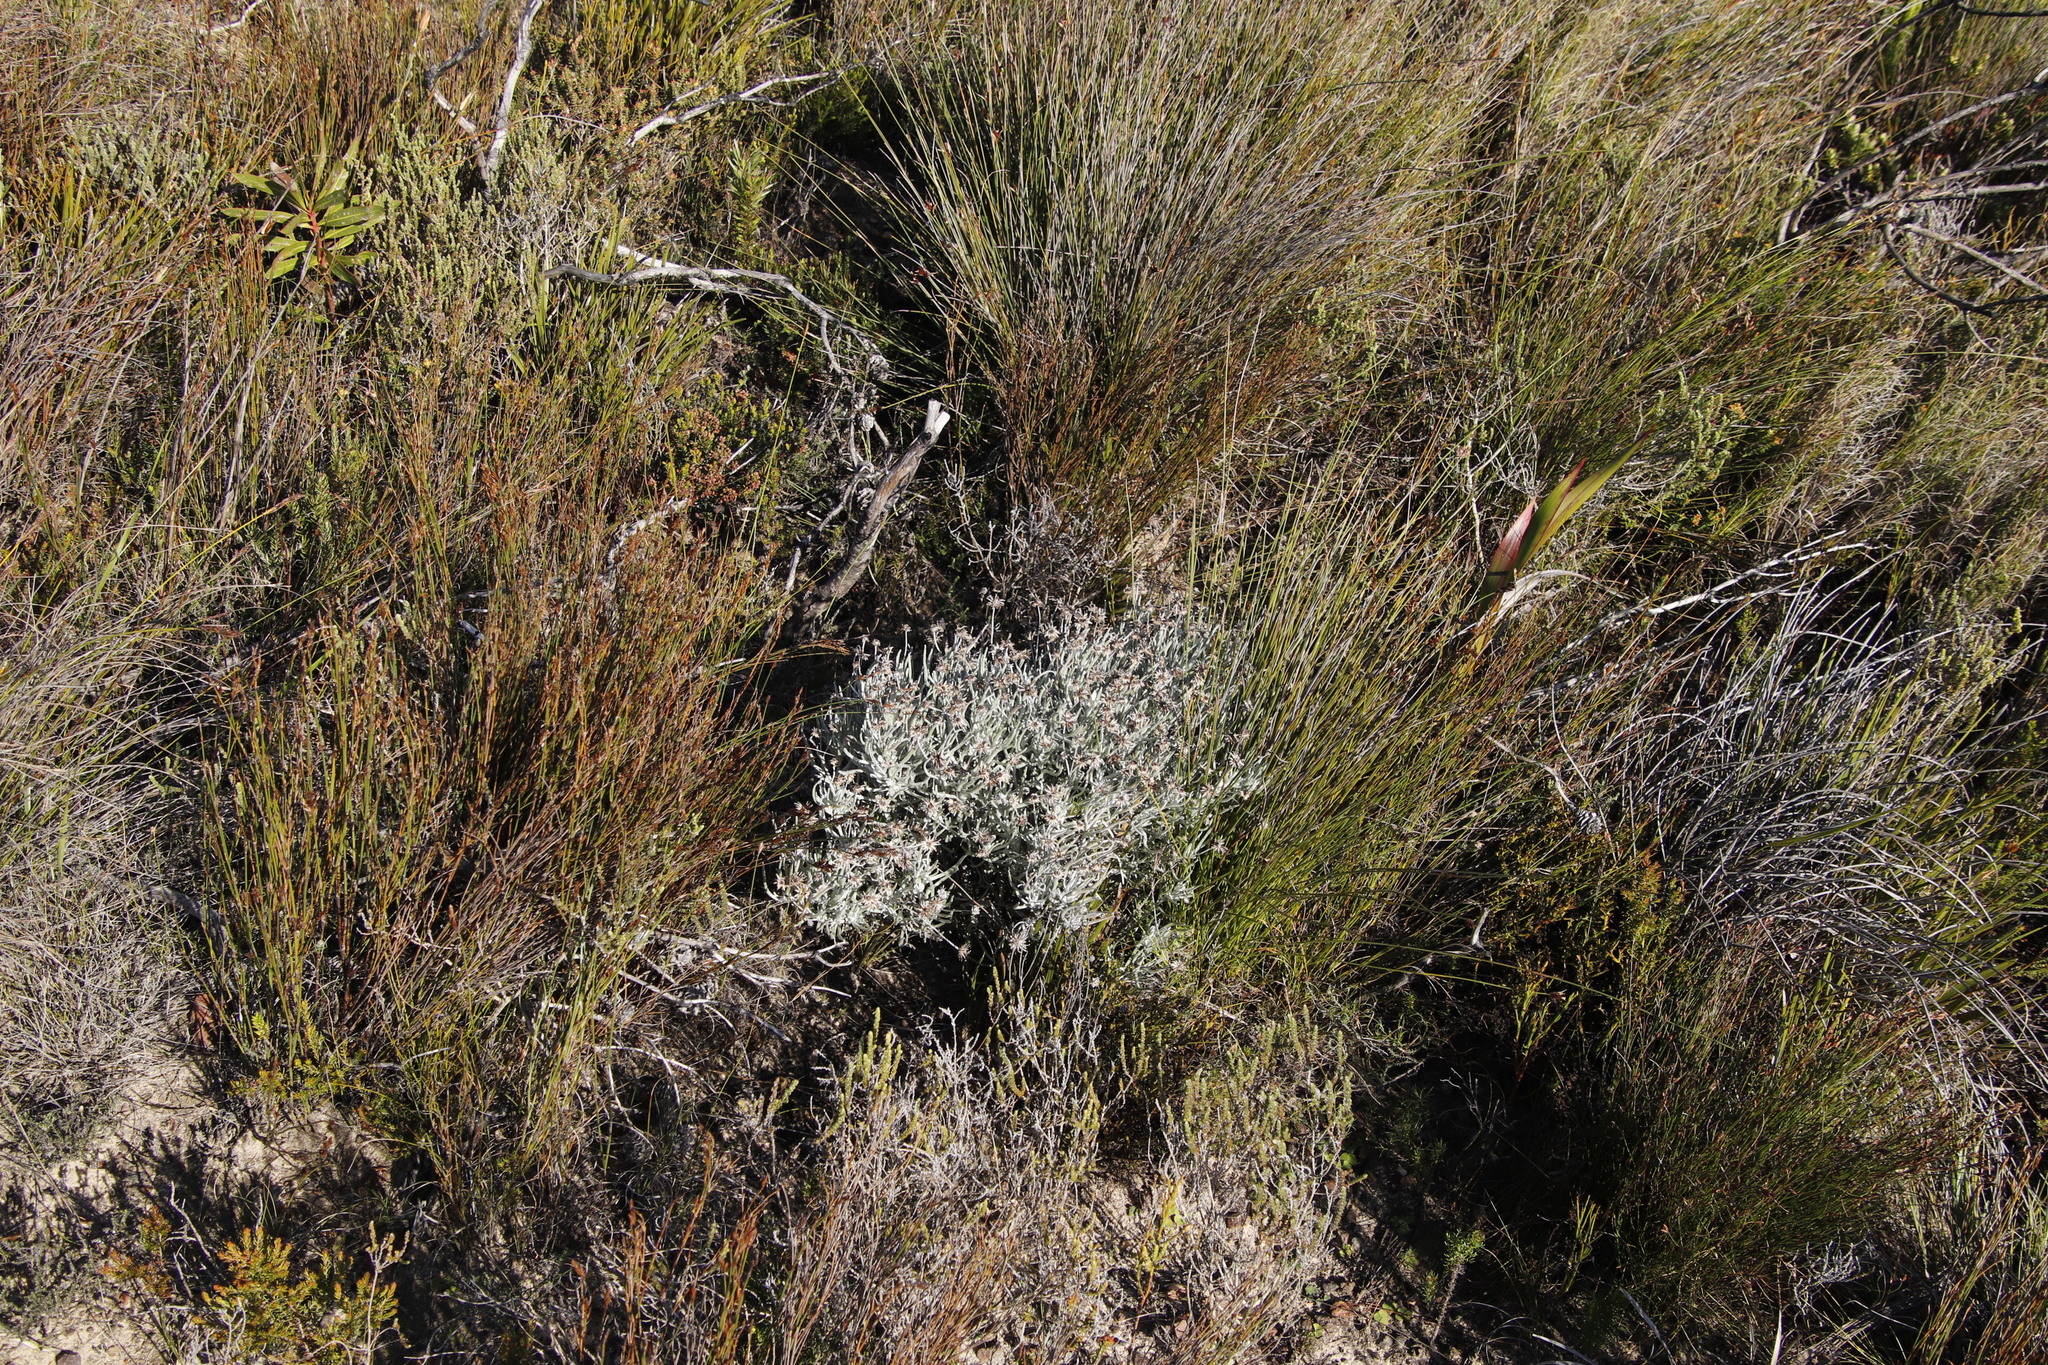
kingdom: Plantae
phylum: Tracheophyta
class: Magnoliopsida
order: Asterales
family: Asteraceae
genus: Syncarpha
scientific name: Syncarpha gnaphaloides
